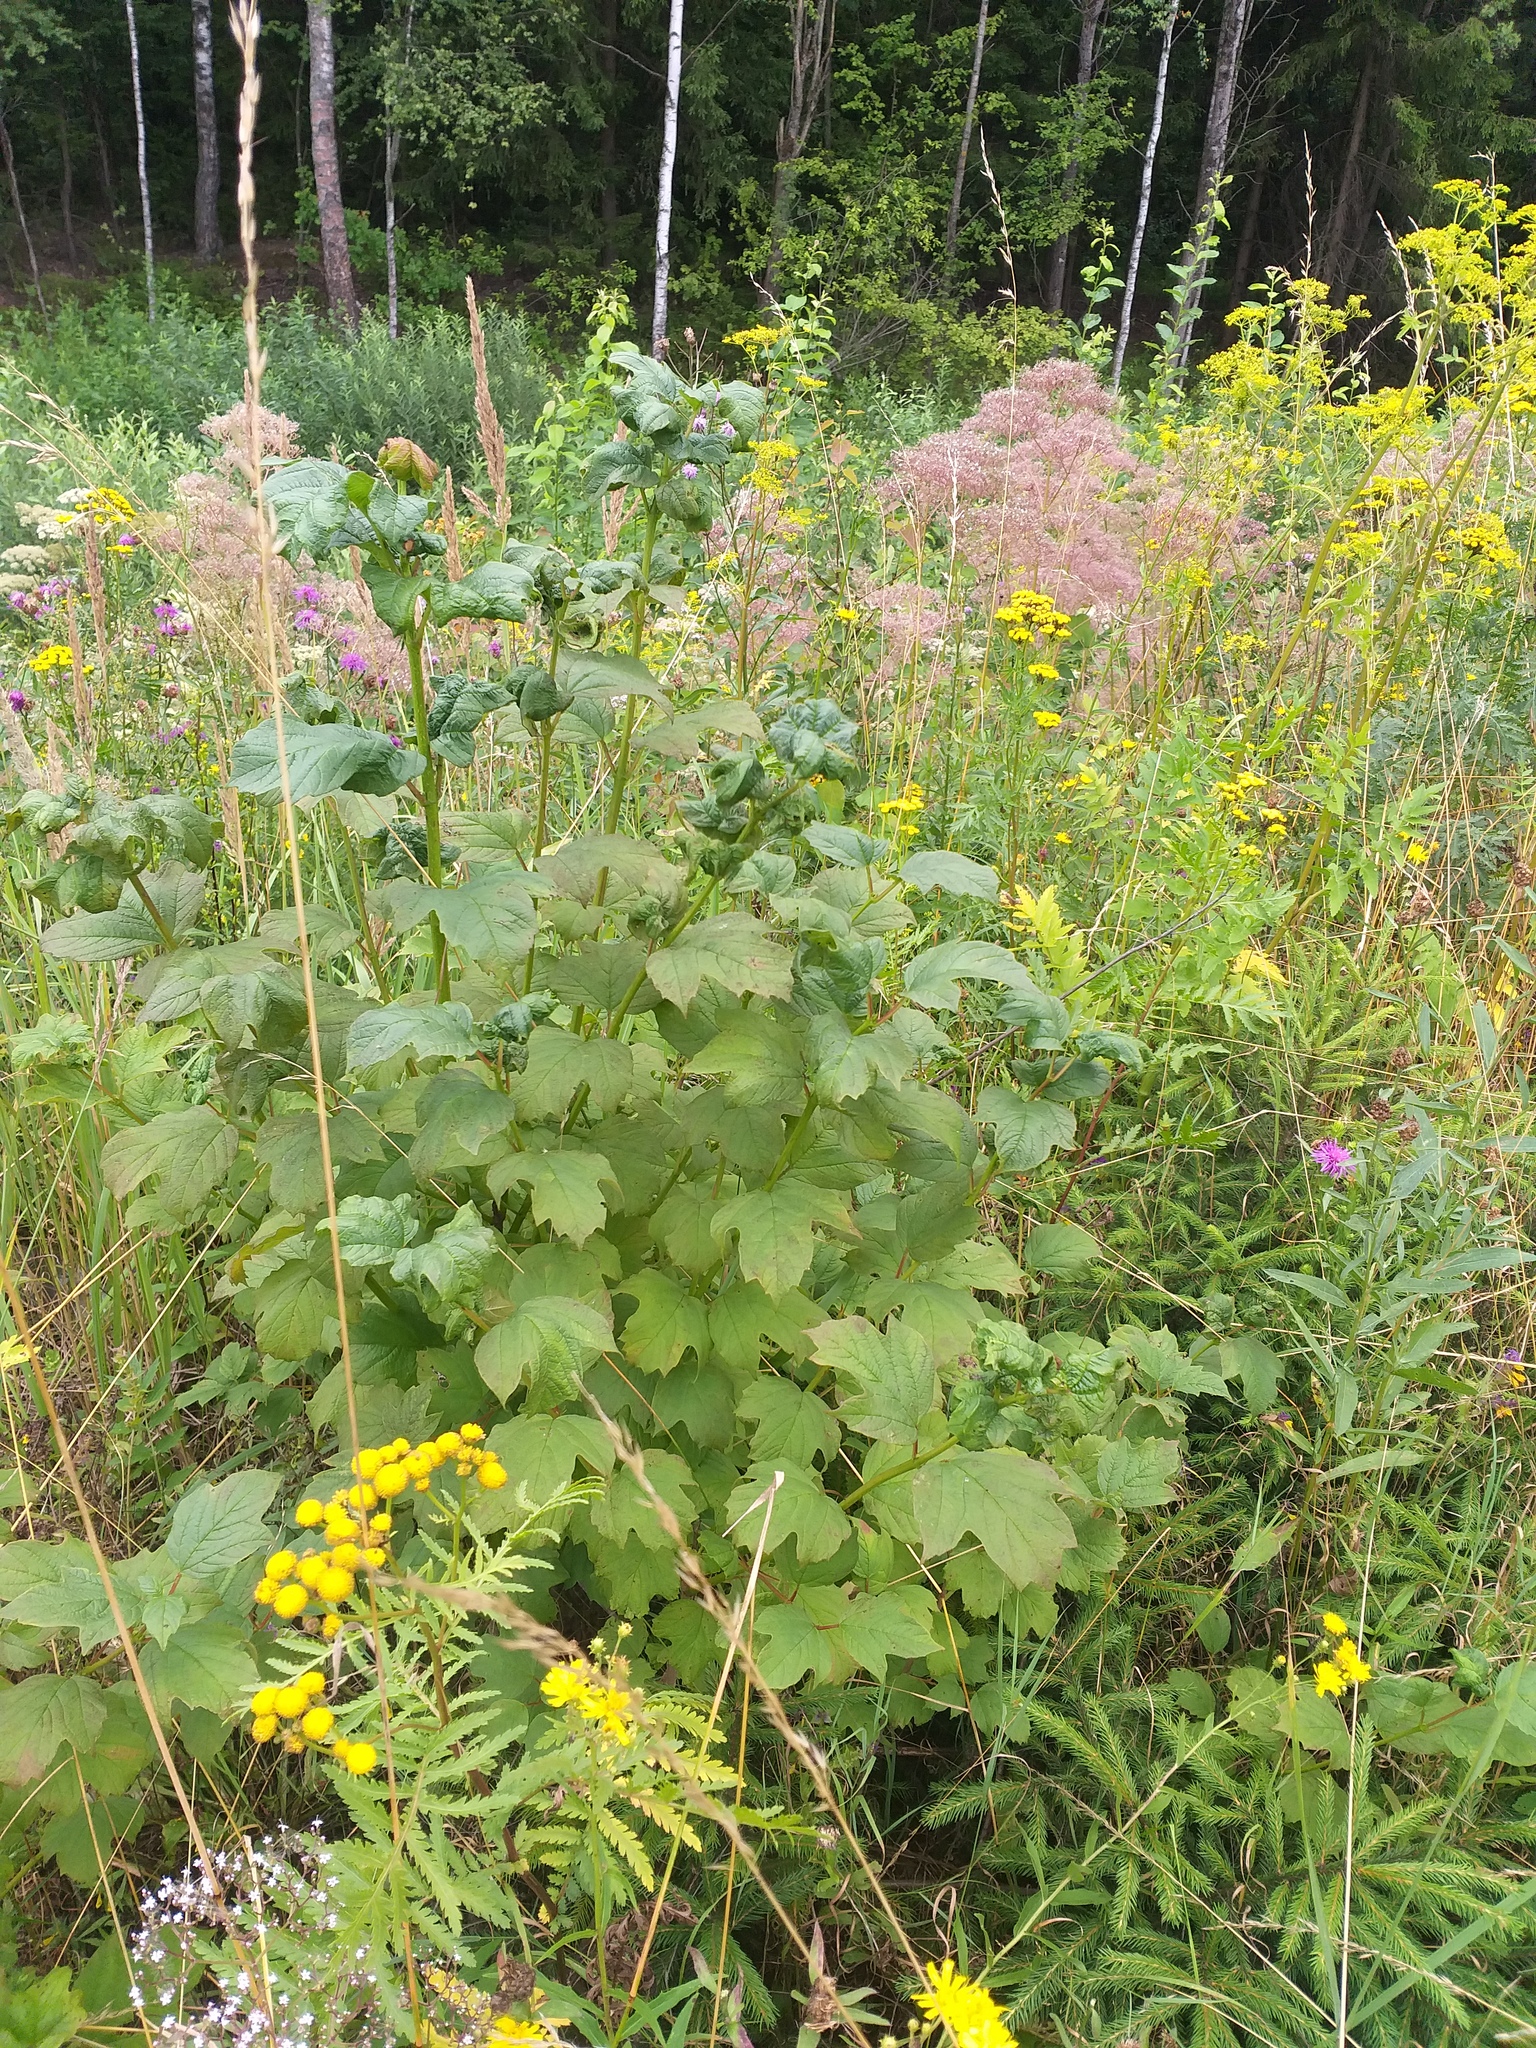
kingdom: Plantae
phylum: Tracheophyta
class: Magnoliopsida
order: Dipsacales
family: Viburnaceae
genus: Viburnum
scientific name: Viburnum opulus
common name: Guelder-rose
